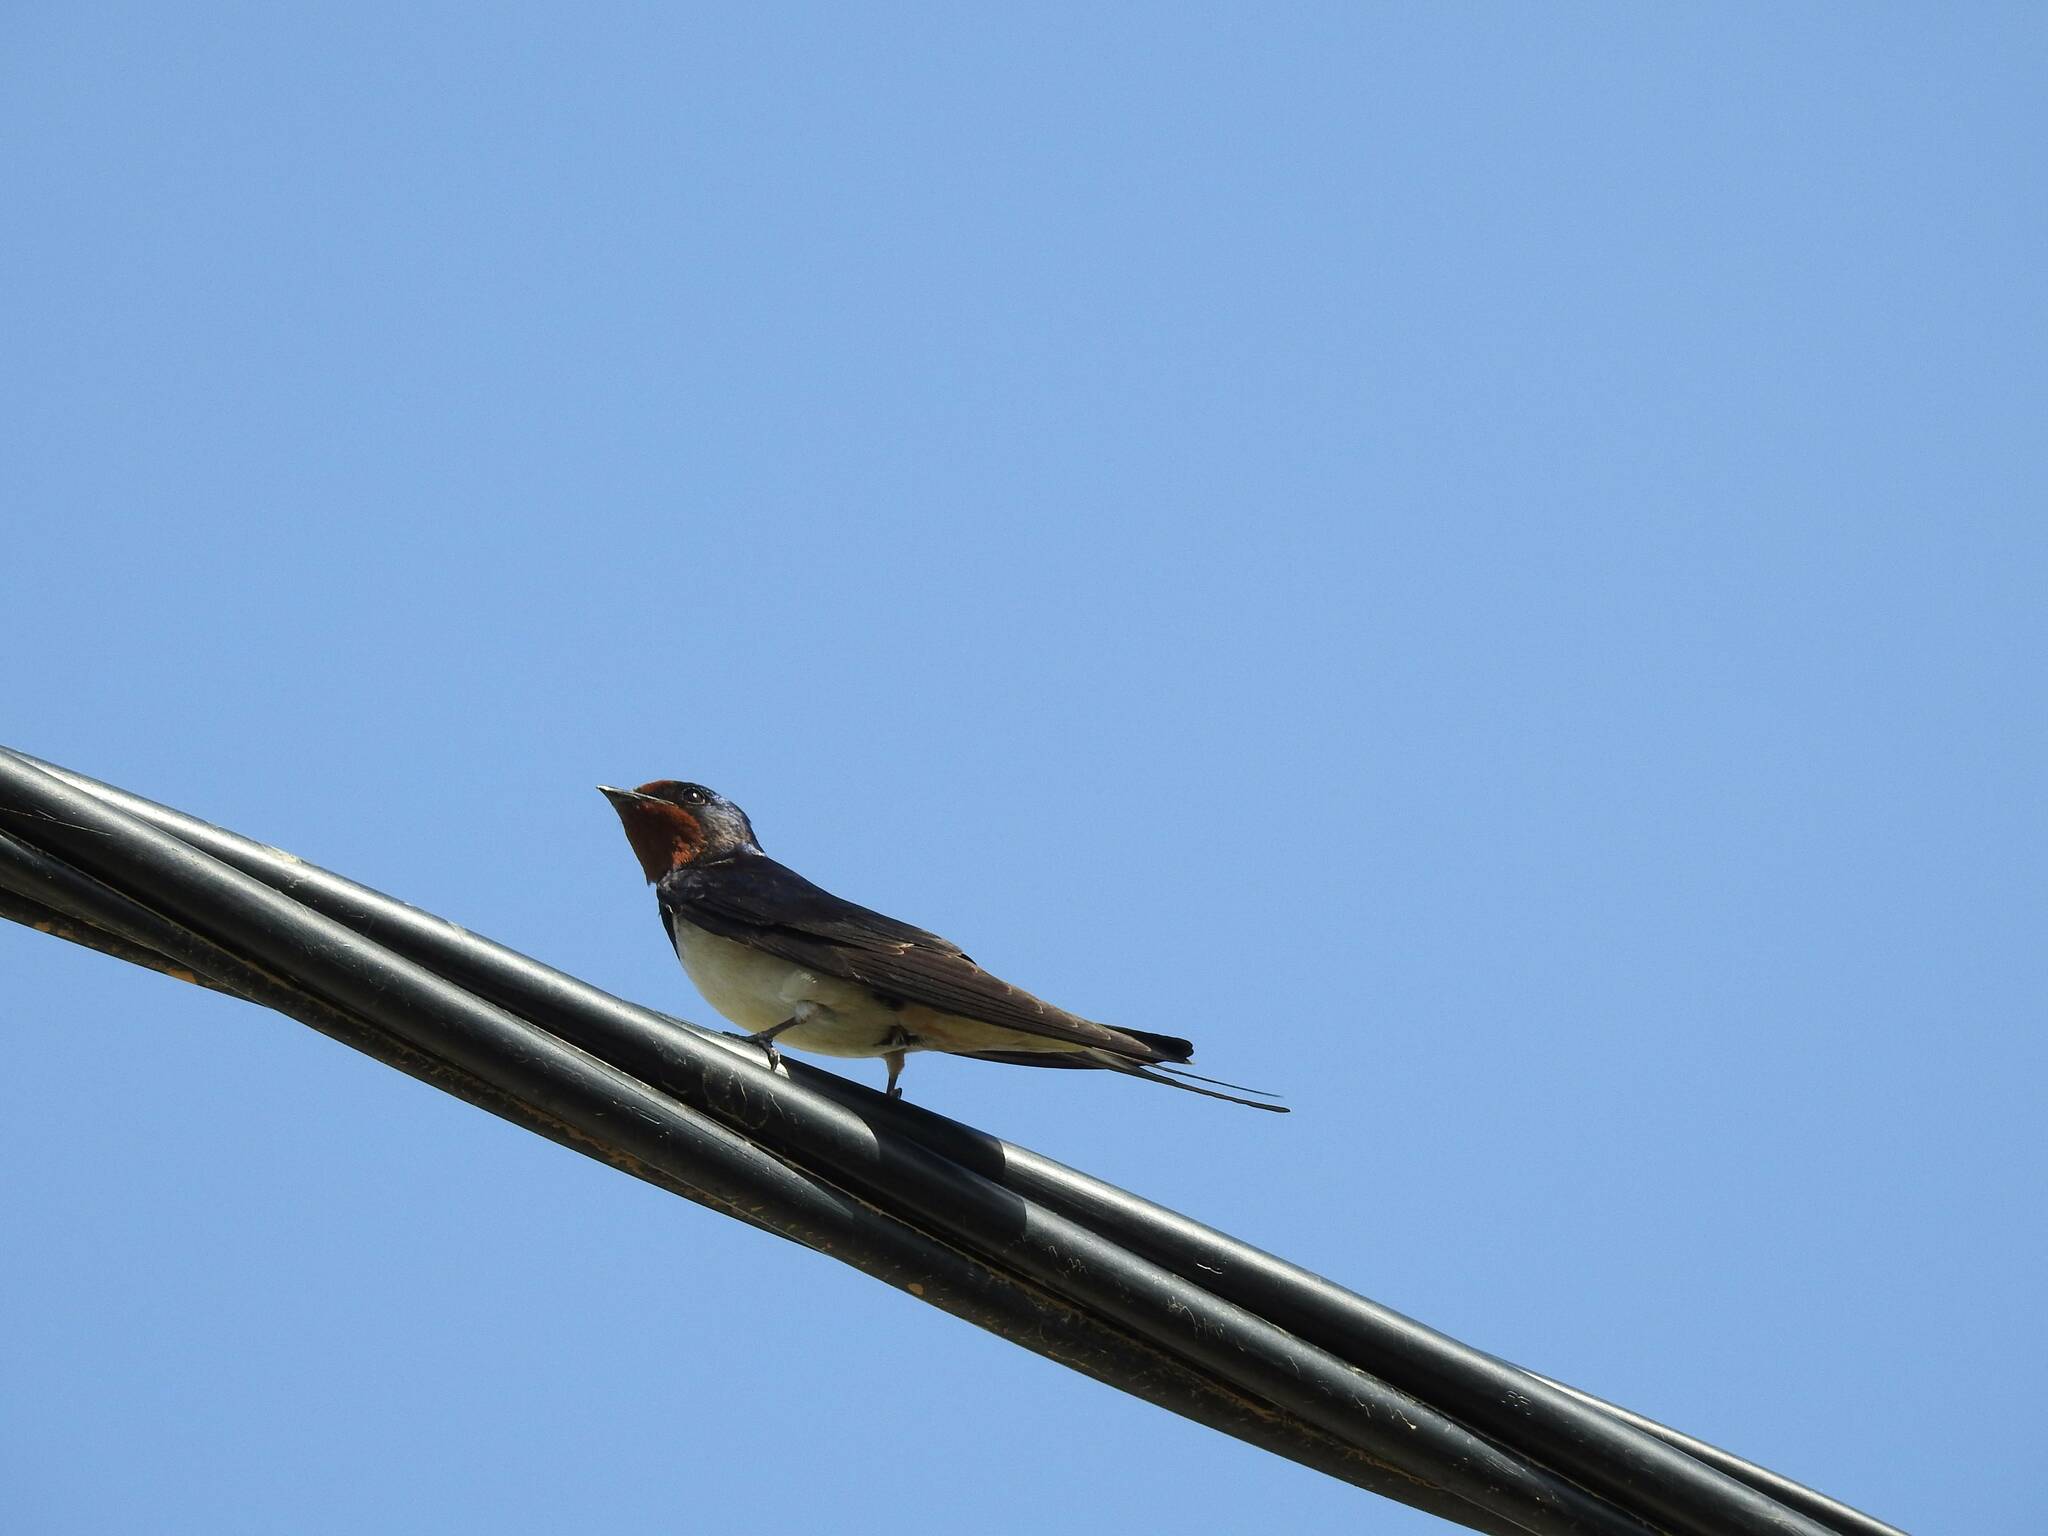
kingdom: Animalia
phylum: Chordata
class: Aves
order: Passeriformes
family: Hirundinidae
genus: Hirundo
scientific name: Hirundo rustica
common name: Barn swallow
